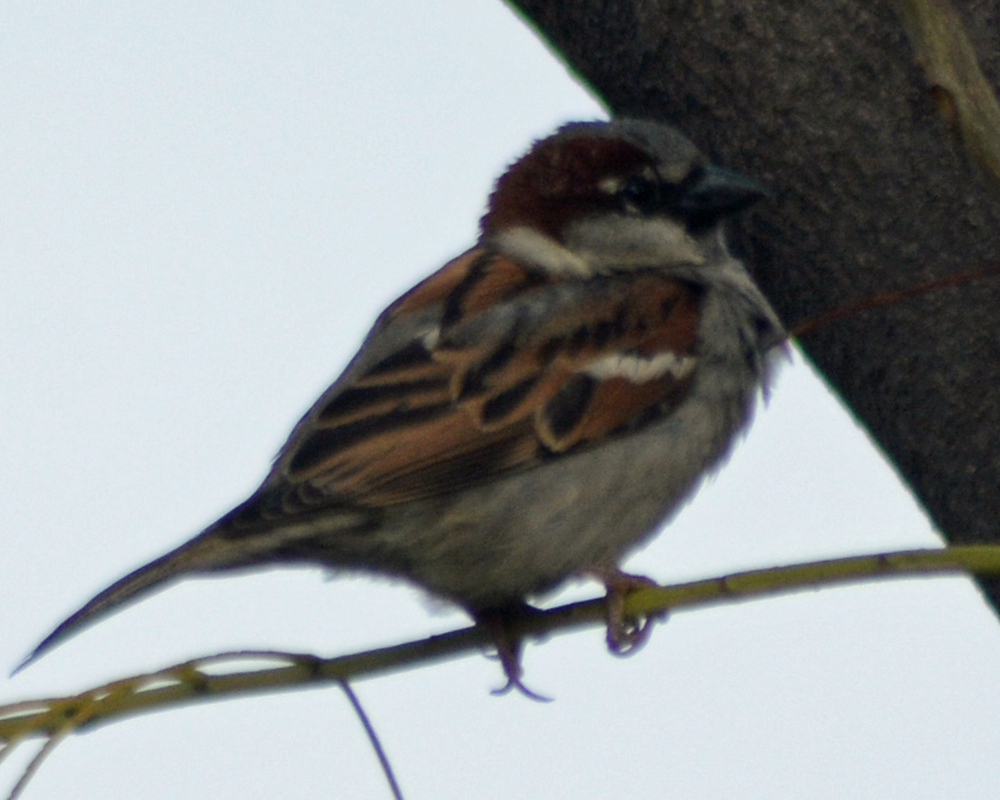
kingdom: Animalia
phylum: Chordata
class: Aves
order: Passeriformes
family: Passeridae
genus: Passer
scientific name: Passer domesticus
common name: House sparrow
